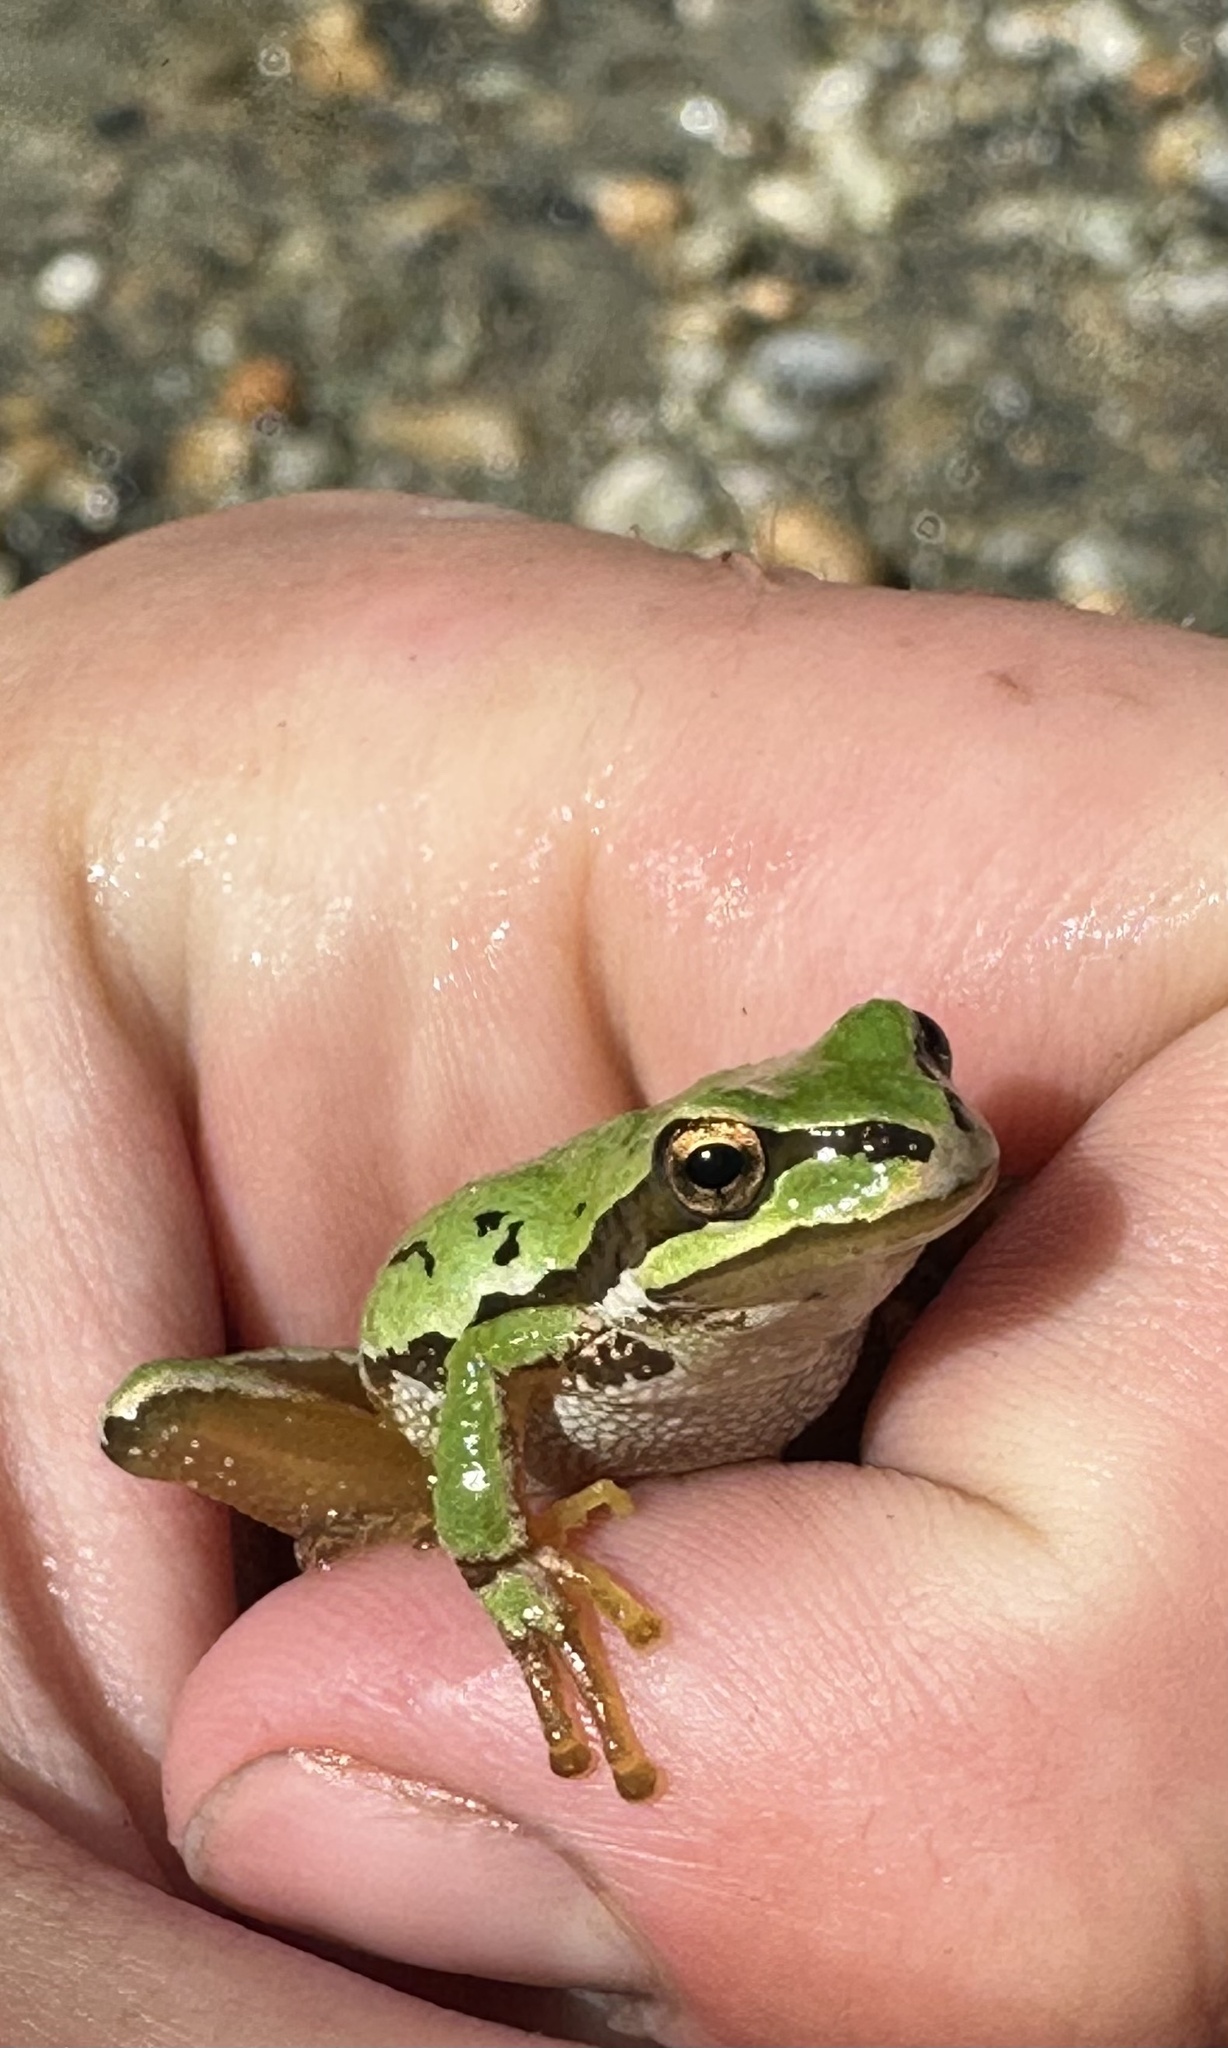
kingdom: Animalia
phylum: Chordata
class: Amphibia
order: Anura
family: Hylidae
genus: Pseudacris
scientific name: Pseudacris regilla
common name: Pacific chorus frog
